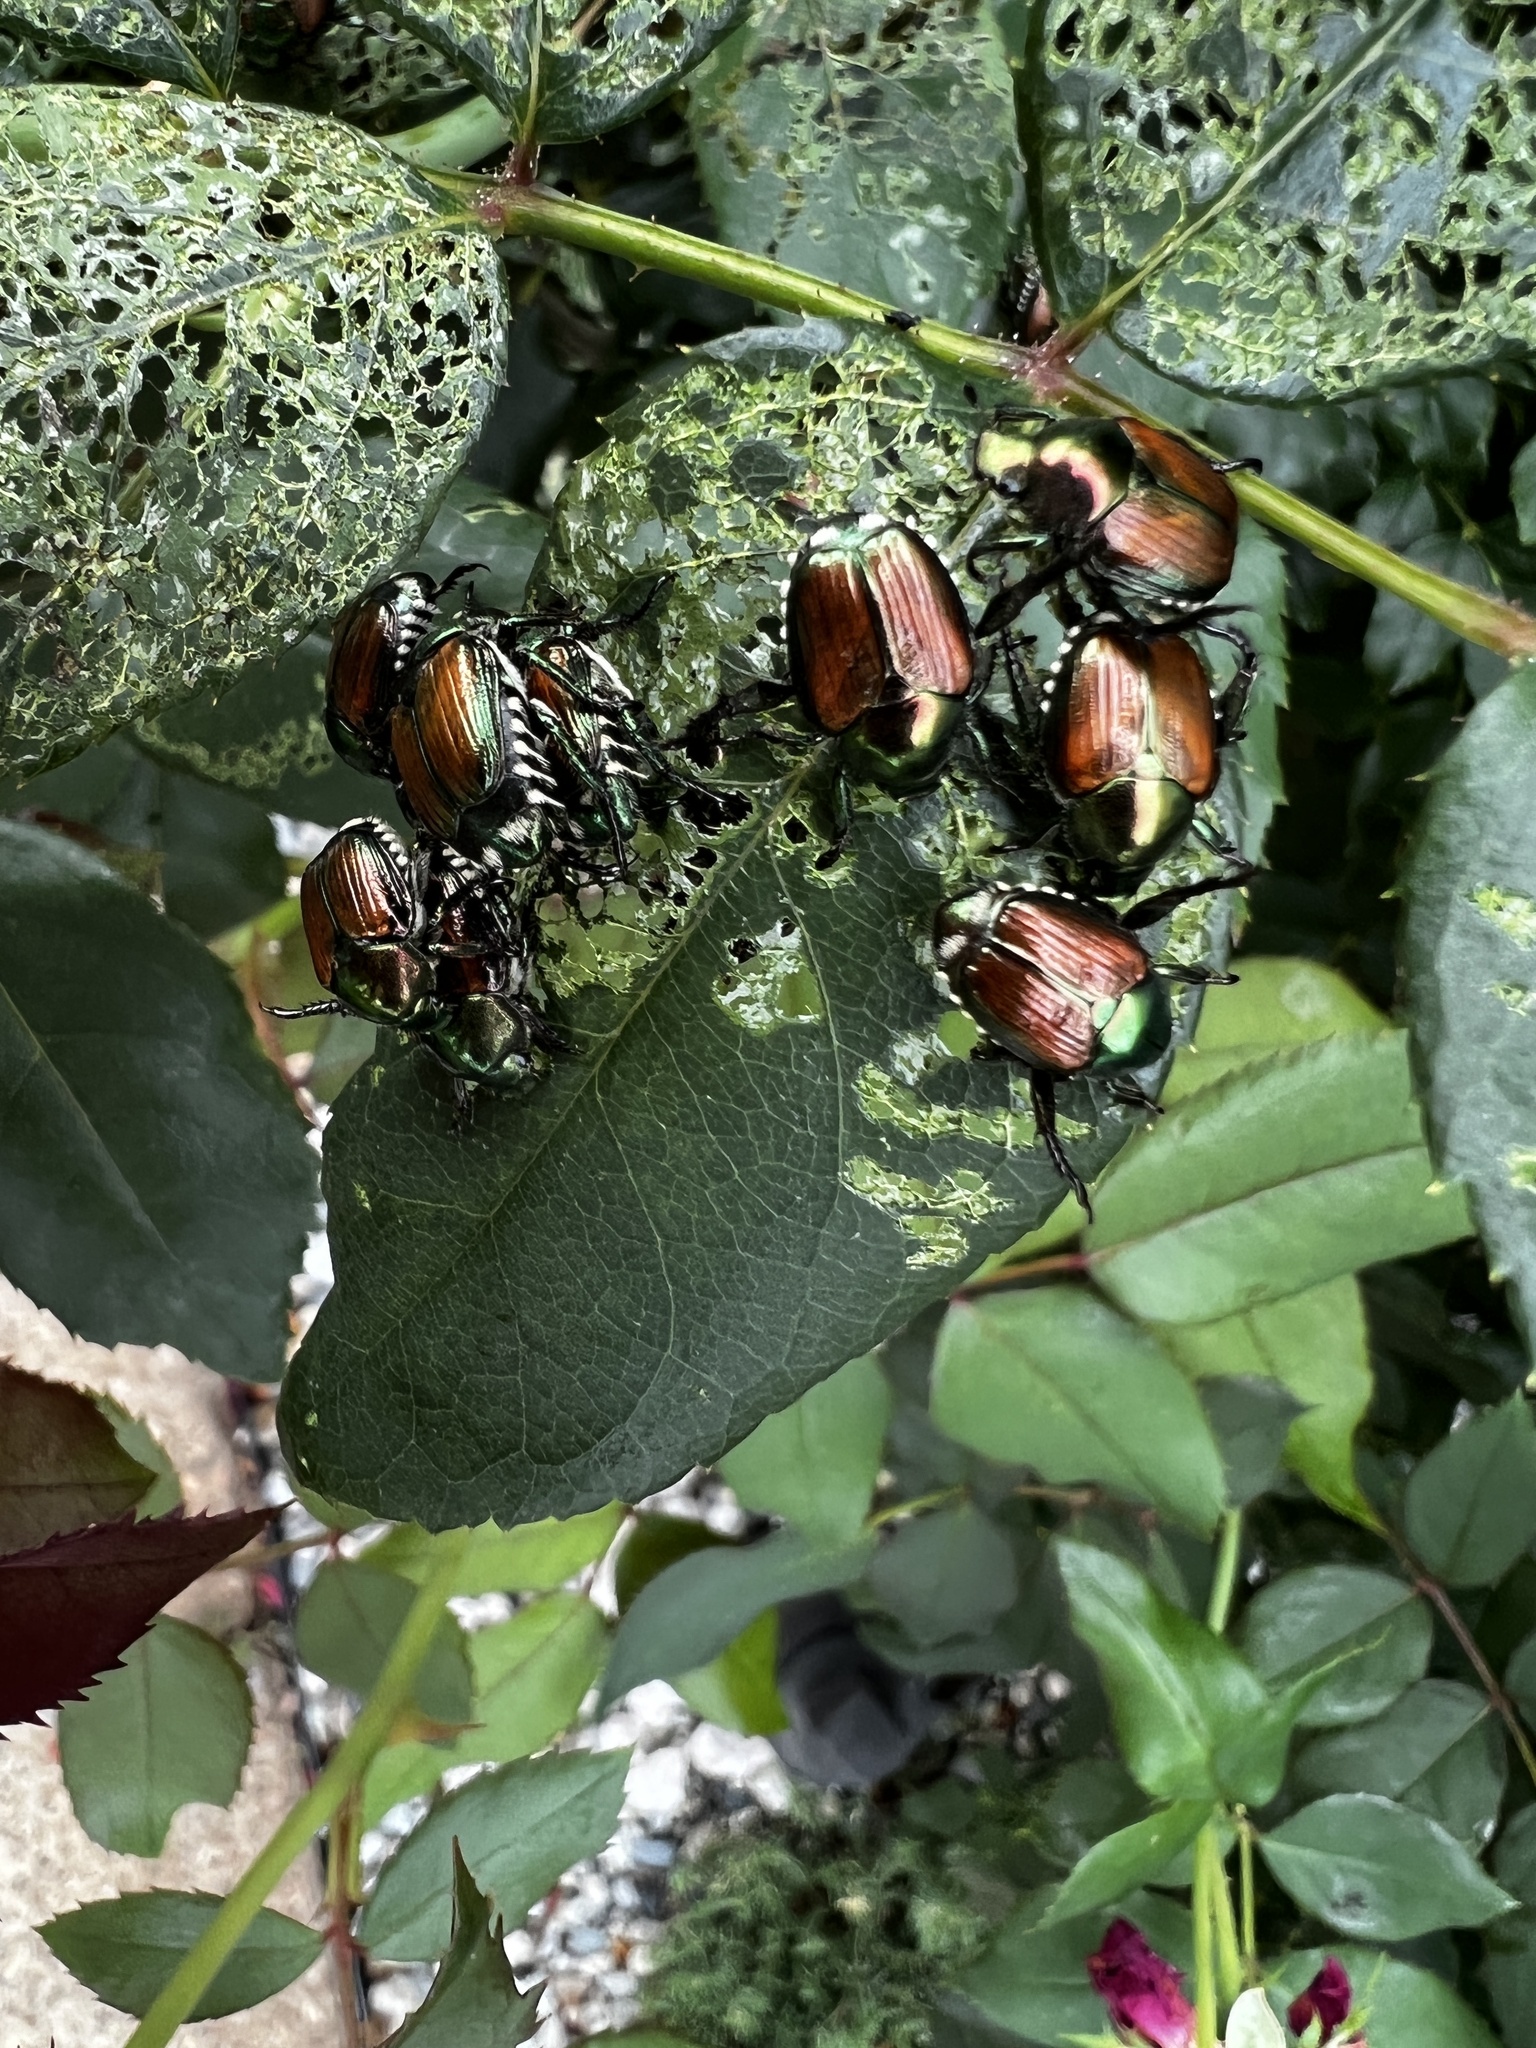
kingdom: Animalia
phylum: Arthropoda
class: Insecta
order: Coleoptera
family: Scarabaeidae
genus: Popillia
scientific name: Popillia japonica
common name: Japanese beetle
